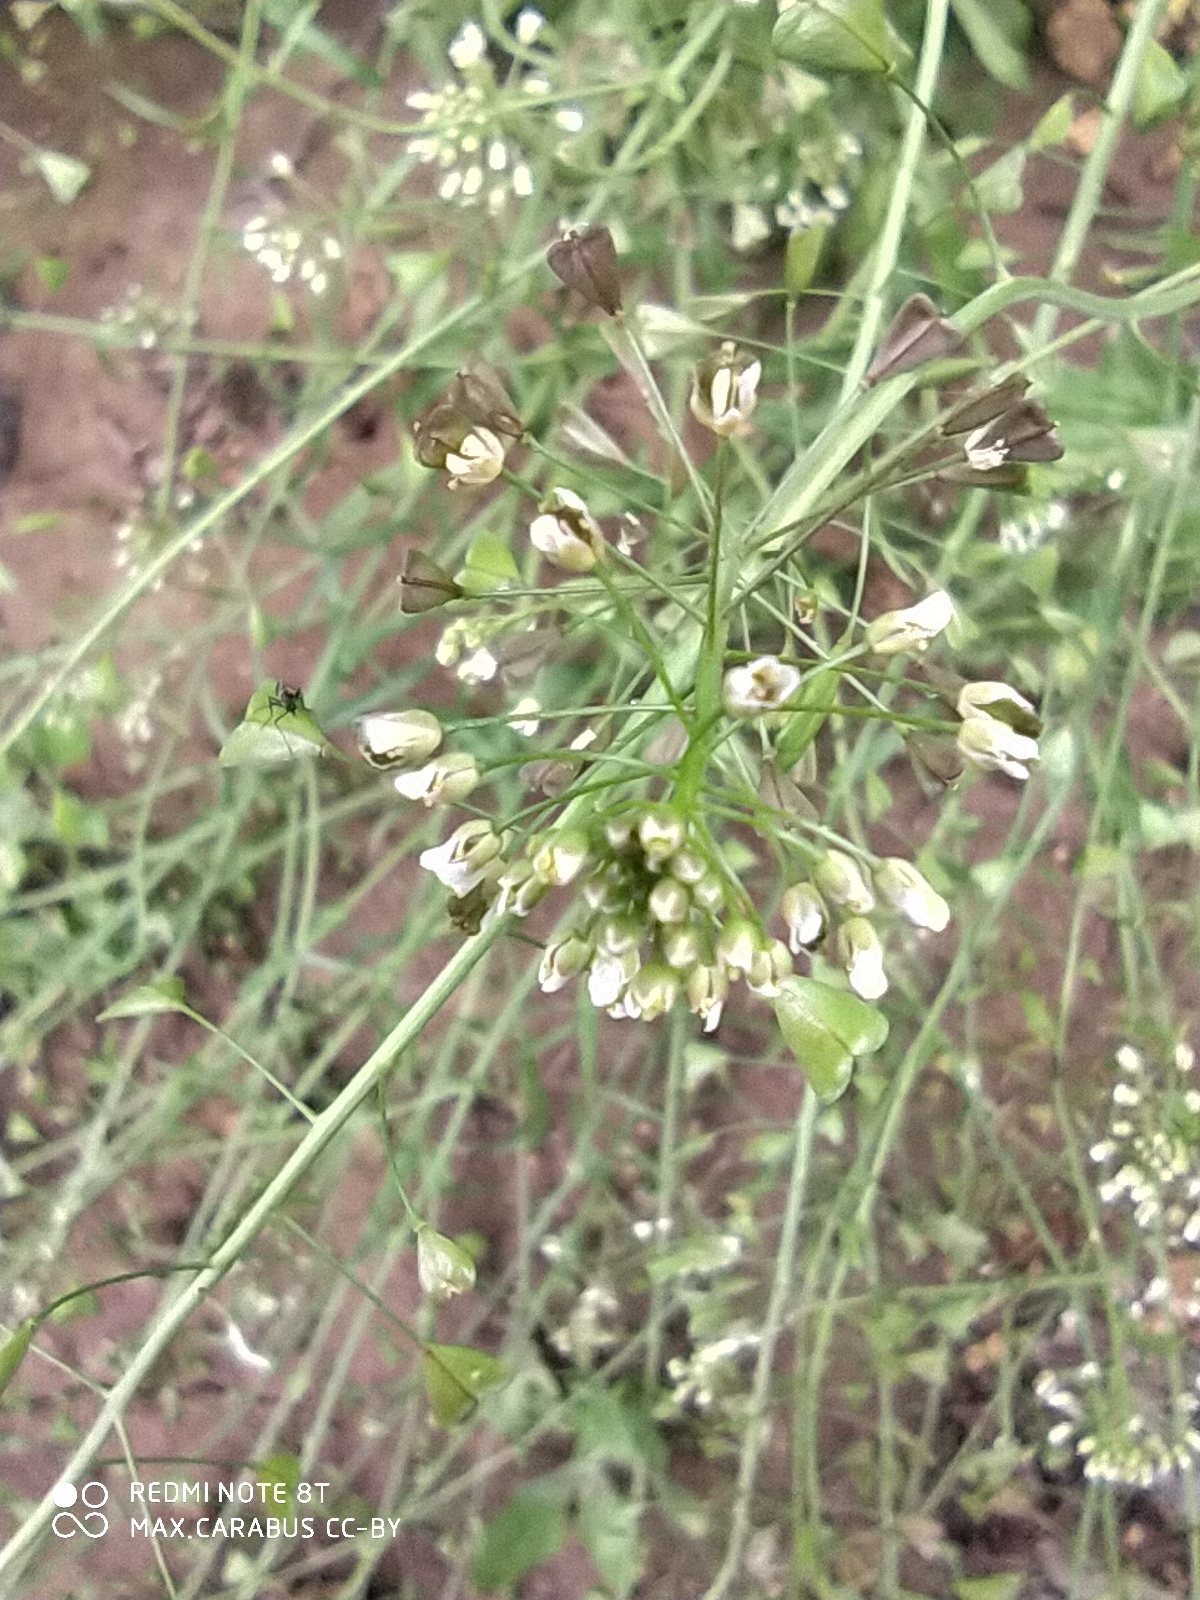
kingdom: Plantae
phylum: Tracheophyta
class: Magnoliopsida
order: Brassicales
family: Brassicaceae
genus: Capsella
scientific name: Capsella bursa-pastoris
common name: Shepherd's purse
